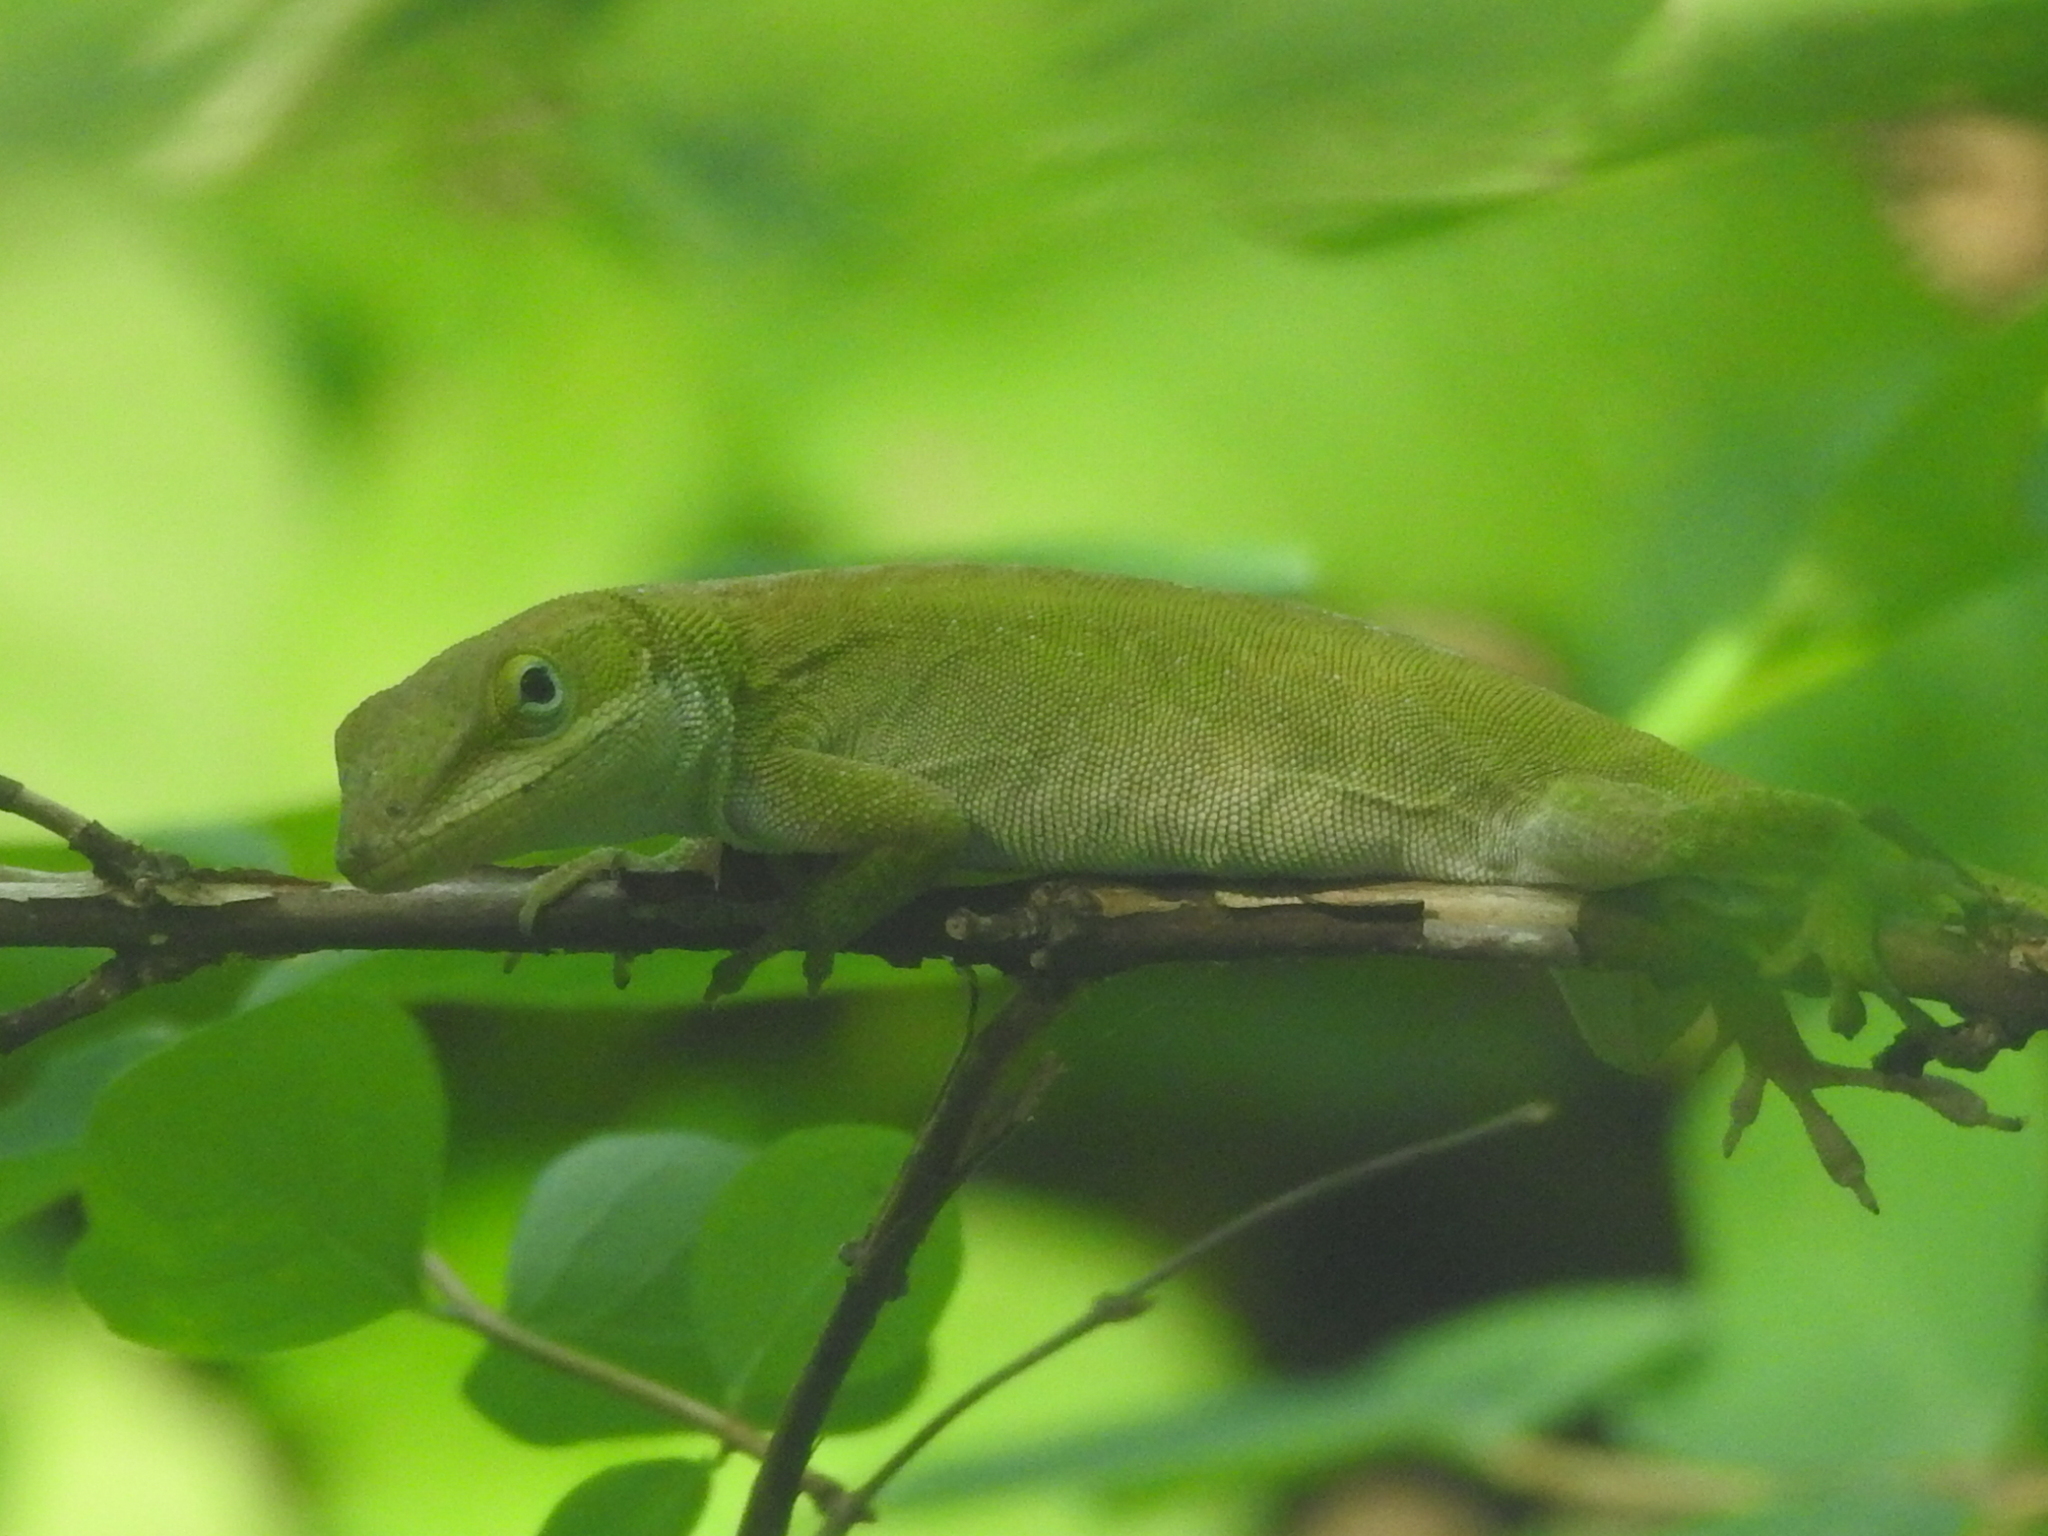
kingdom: Animalia
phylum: Chordata
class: Squamata
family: Dactyloidae
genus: Anolis
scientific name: Anolis carolinensis
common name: Green anole
